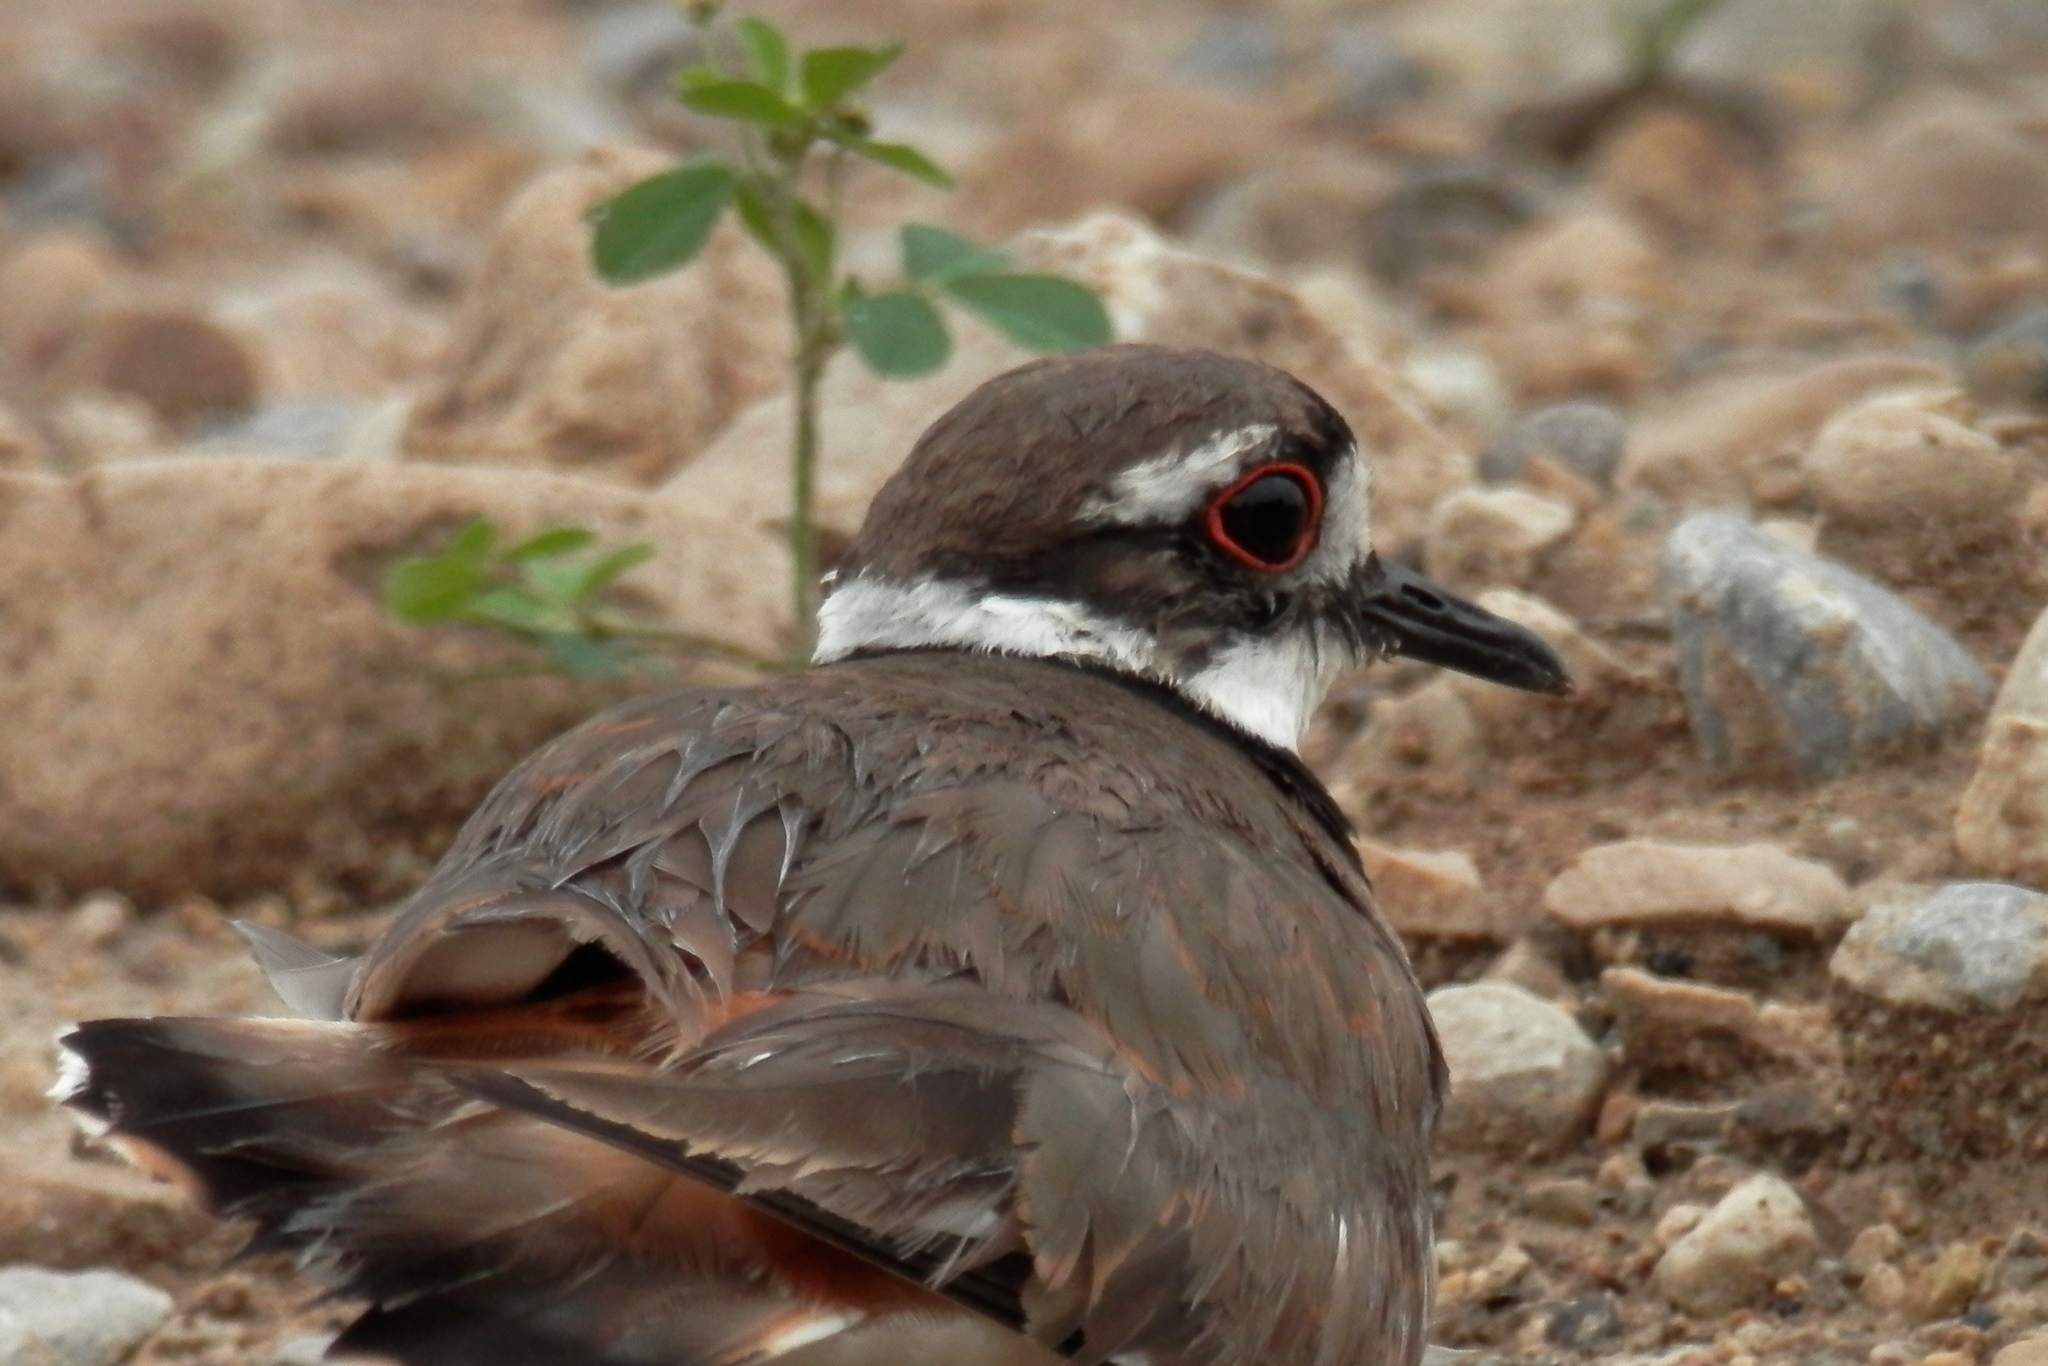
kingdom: Animalia
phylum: Chordata
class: Aves
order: Charadriiformes
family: Charadriidae
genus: Charadrius
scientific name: Charadrius vociferus
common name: Killdeer
